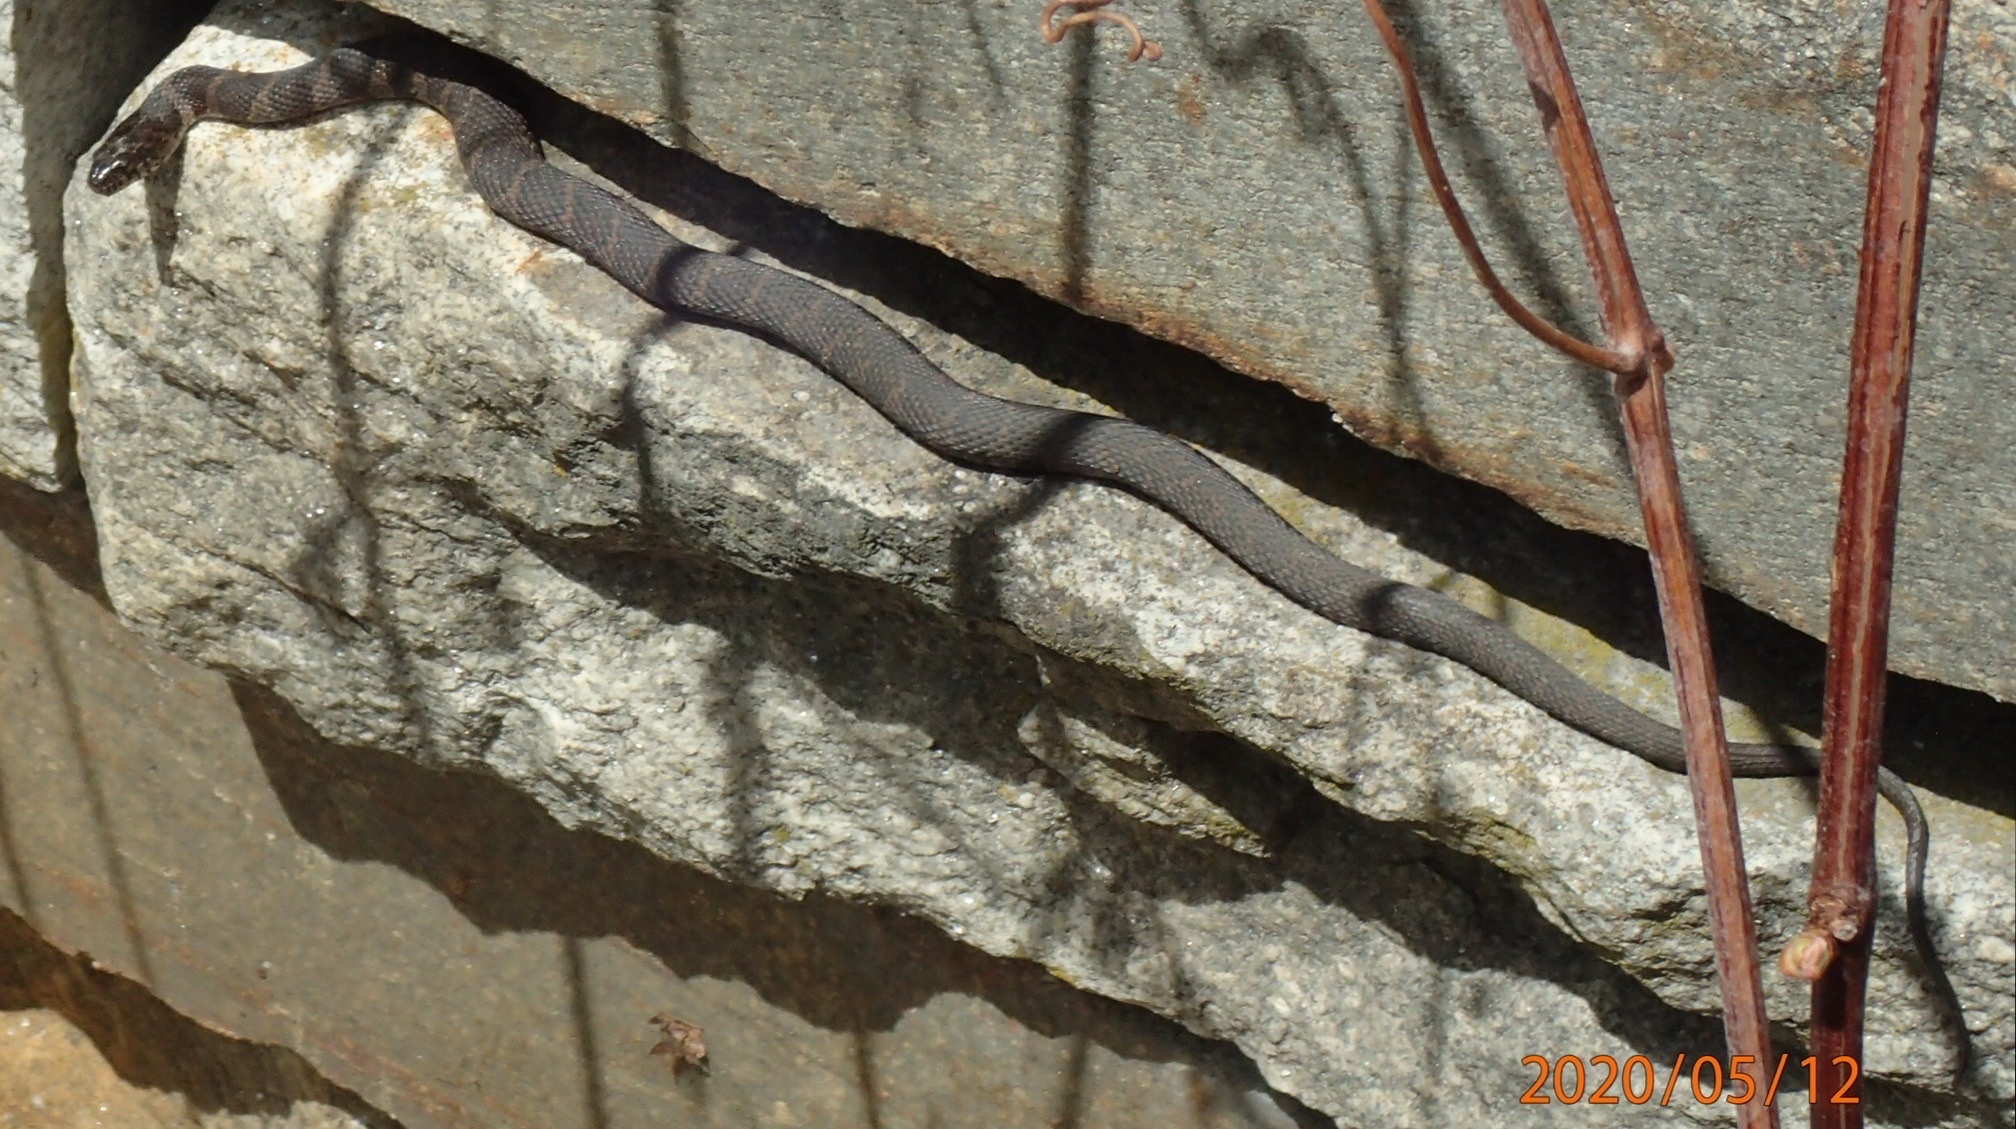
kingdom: Animalia
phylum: Chordata
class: Squamata
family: Colubridae
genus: Nerodia
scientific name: Nerodia sipedon
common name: Northern water snake
